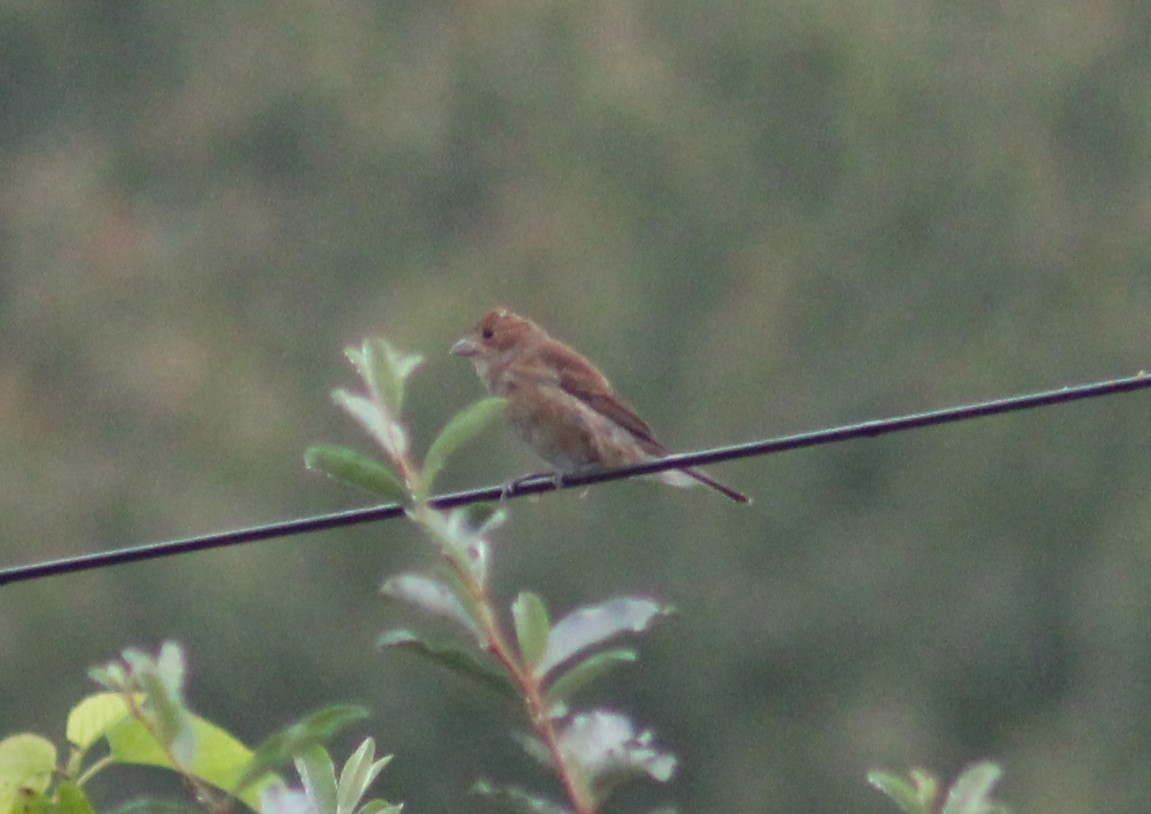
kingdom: Animalia
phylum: Chordata
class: Aves
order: Passeriformes
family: Cardinalidae
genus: Passerina
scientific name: Passerina cyanea
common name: Indigo bunting
